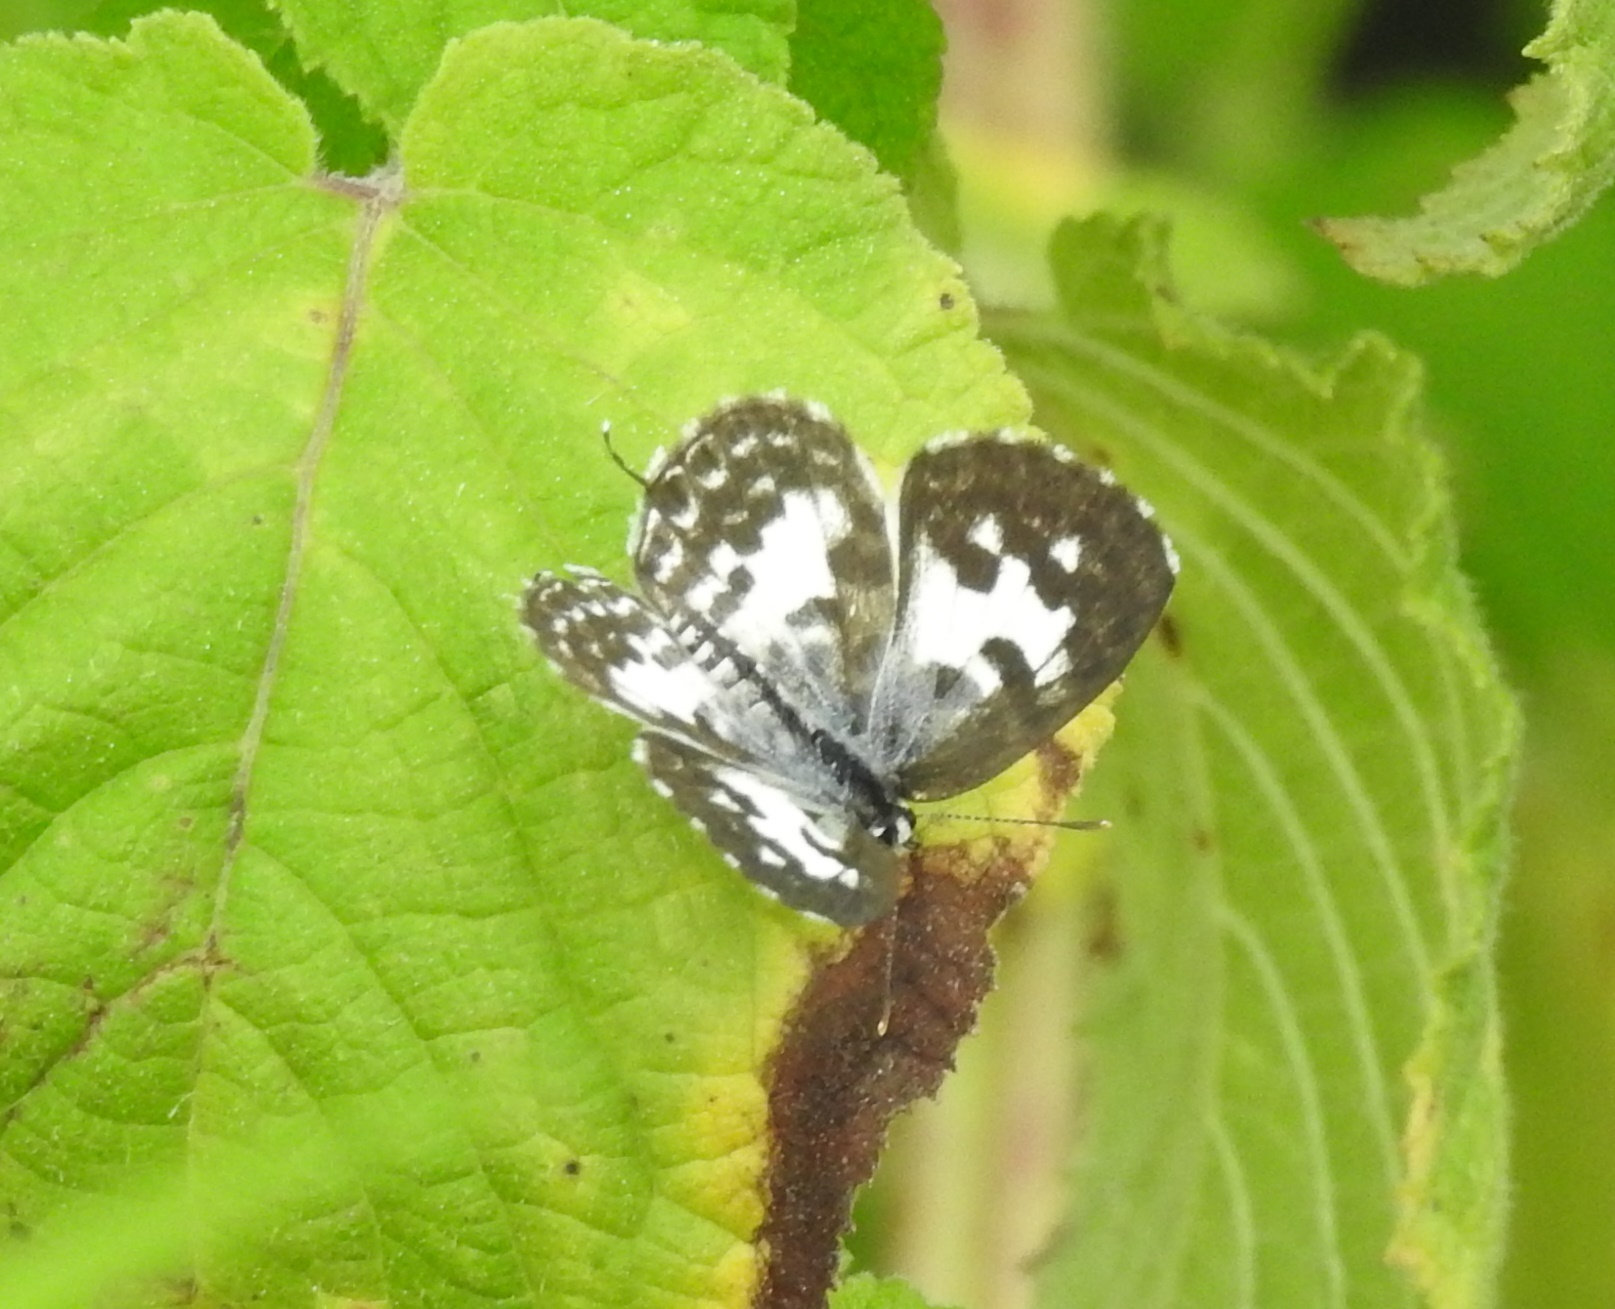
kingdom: Animalia
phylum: Arthropoda
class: Insecta
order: Lepidoptera
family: Lycaenidae
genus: Castalius
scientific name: Castalius rosimon
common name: Common pierrot
